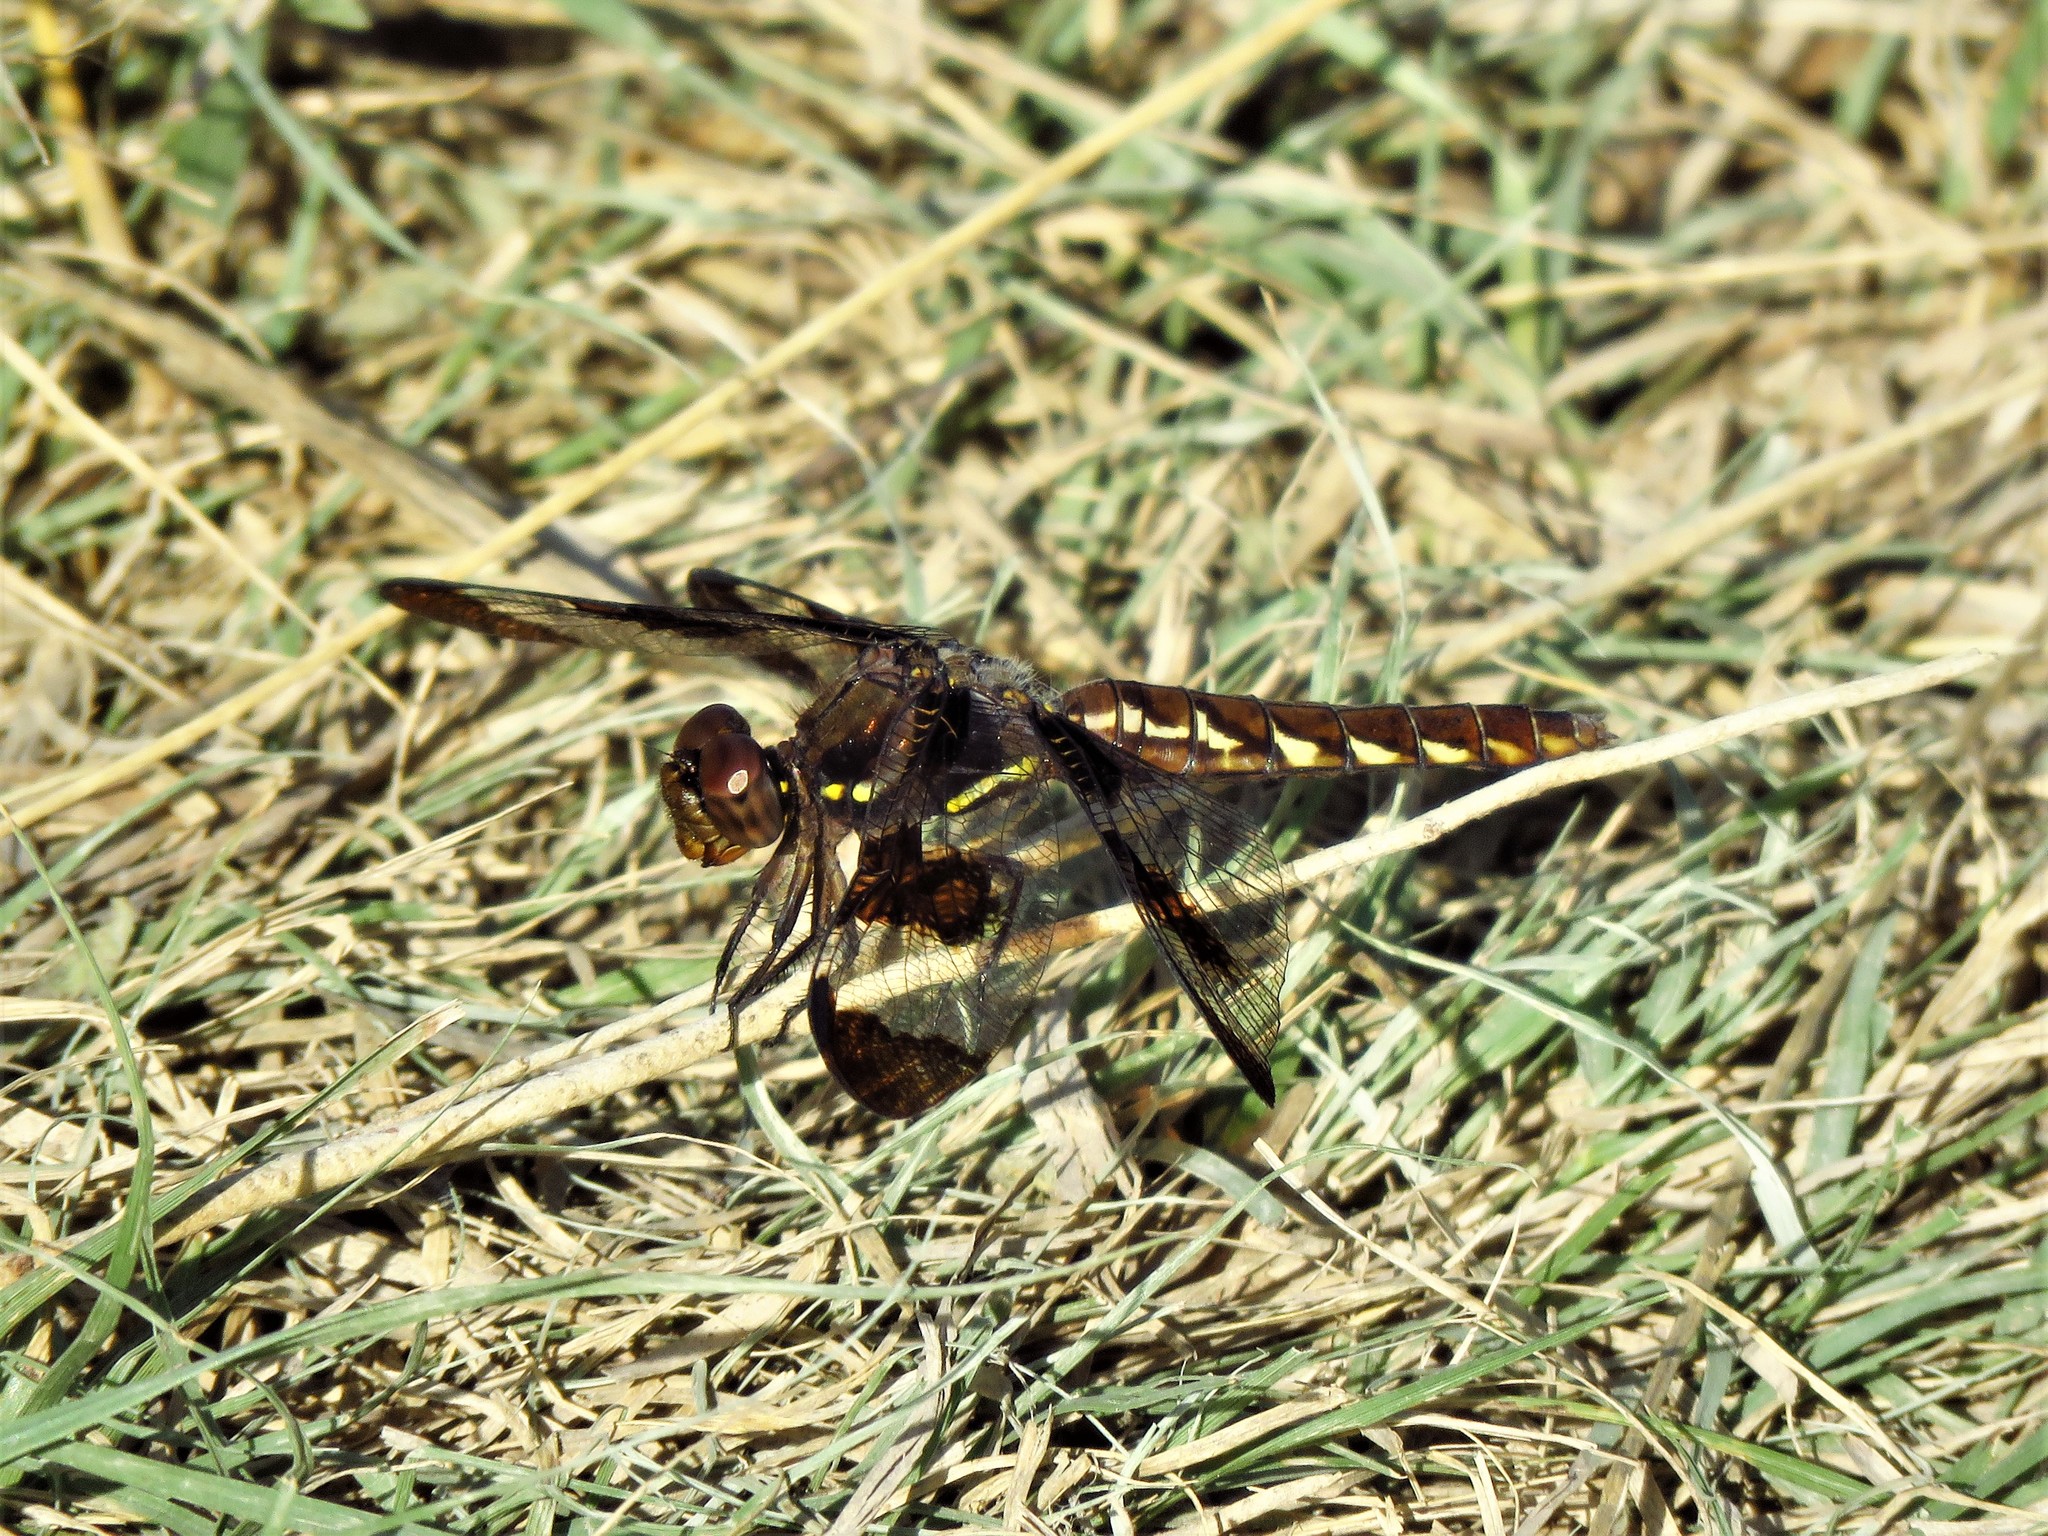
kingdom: Animalia
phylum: Arthropoda
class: Insecta
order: Odonata
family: Libellulidae
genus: Plathemis
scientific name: Plathemis lydia
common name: Common whitetail
